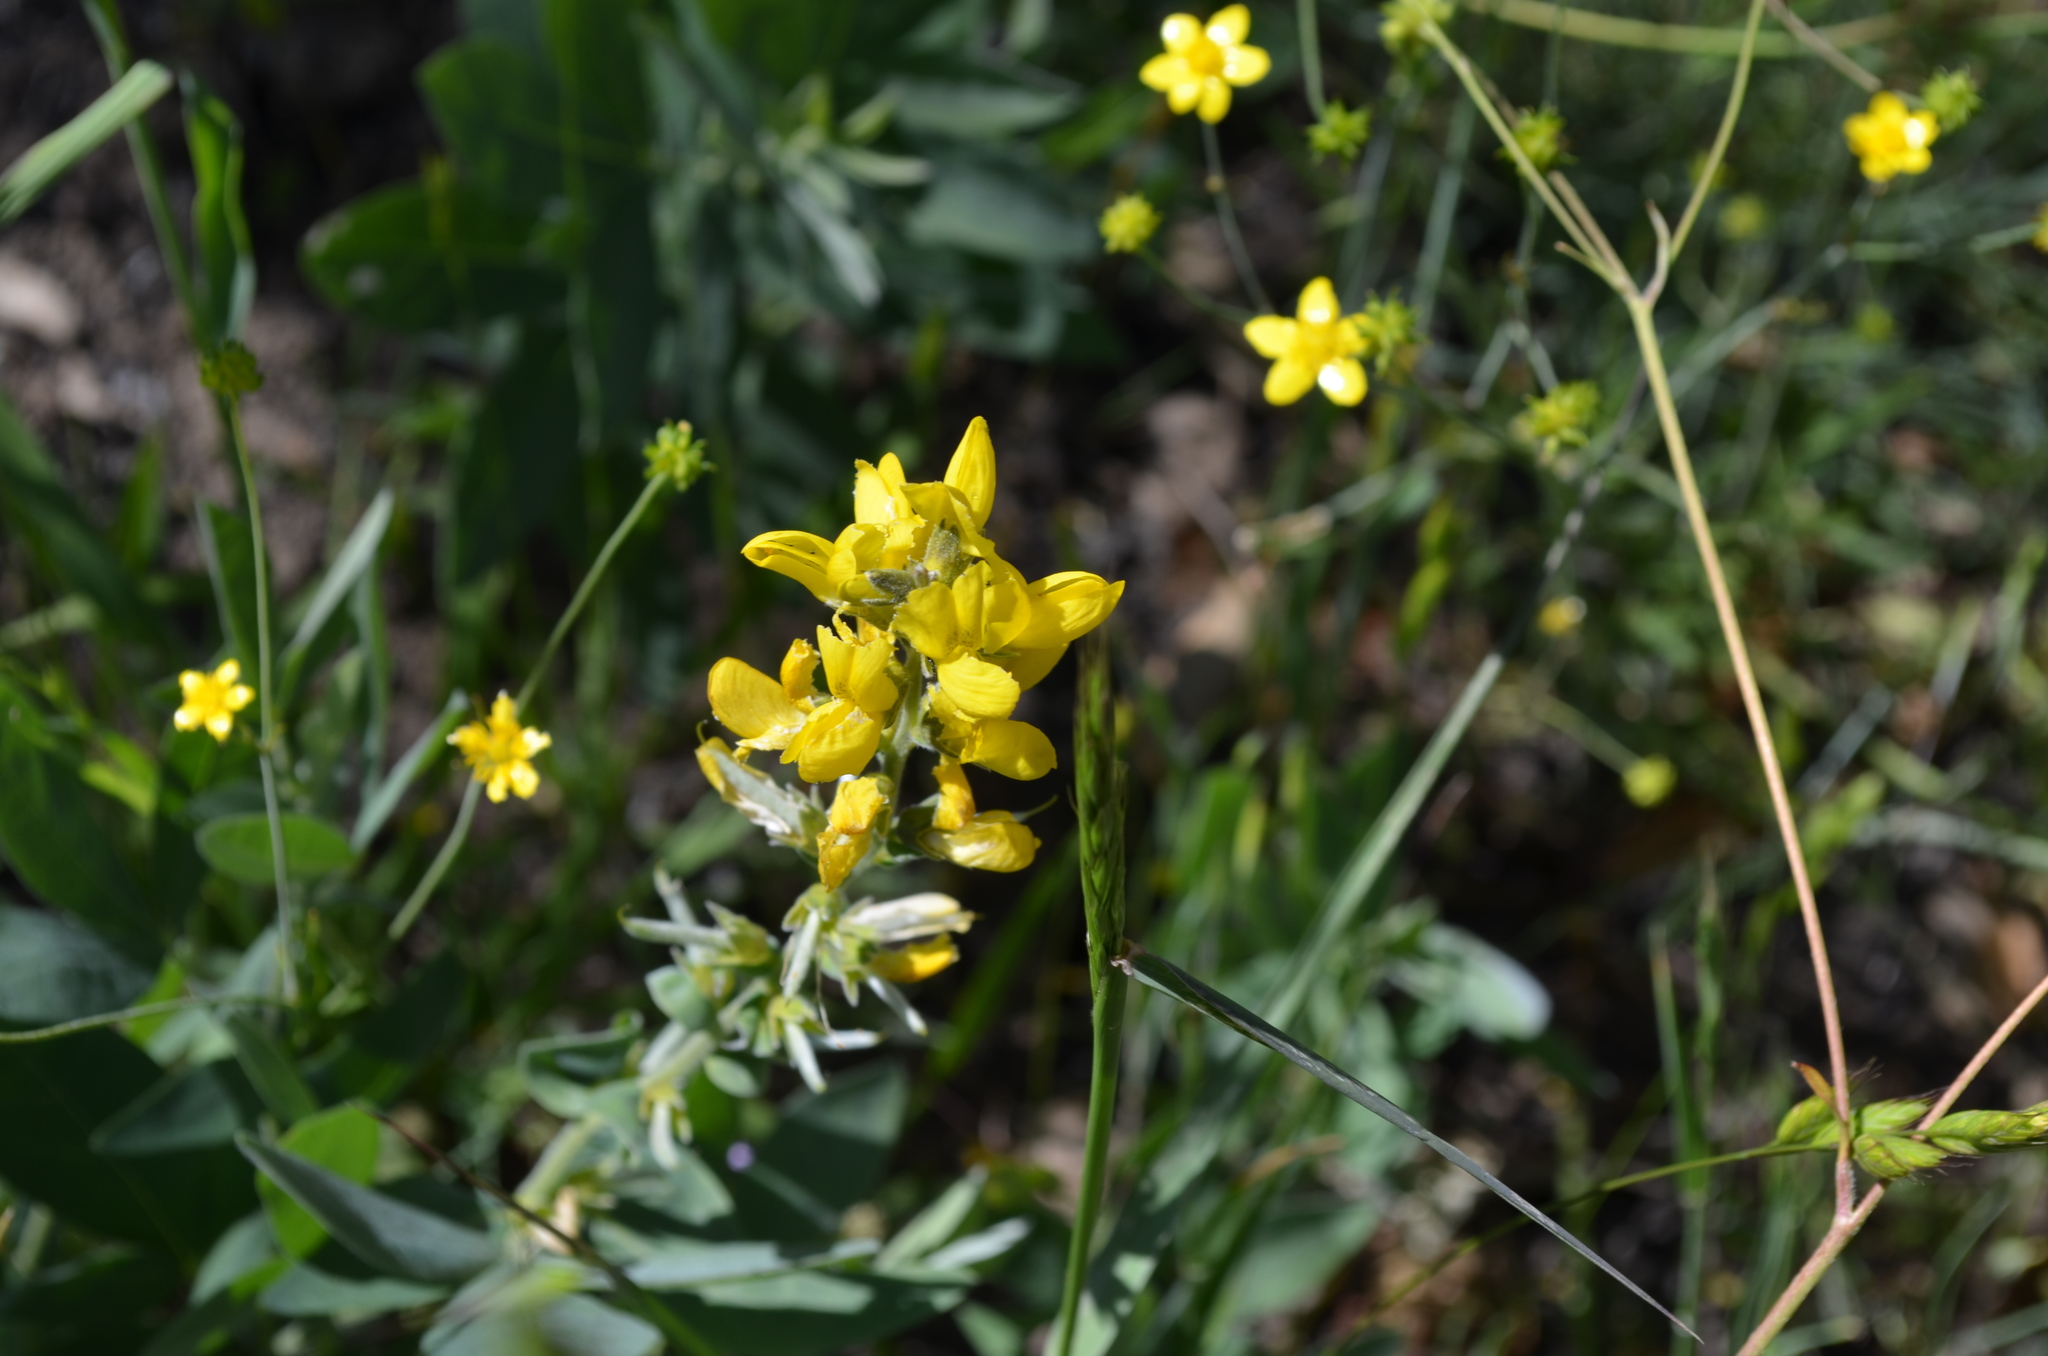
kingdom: Plantae
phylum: Tracheophyta
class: Magnoliopsida
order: Fabales
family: Fabaceae
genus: Thermopsis
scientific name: Thermopsis californica
